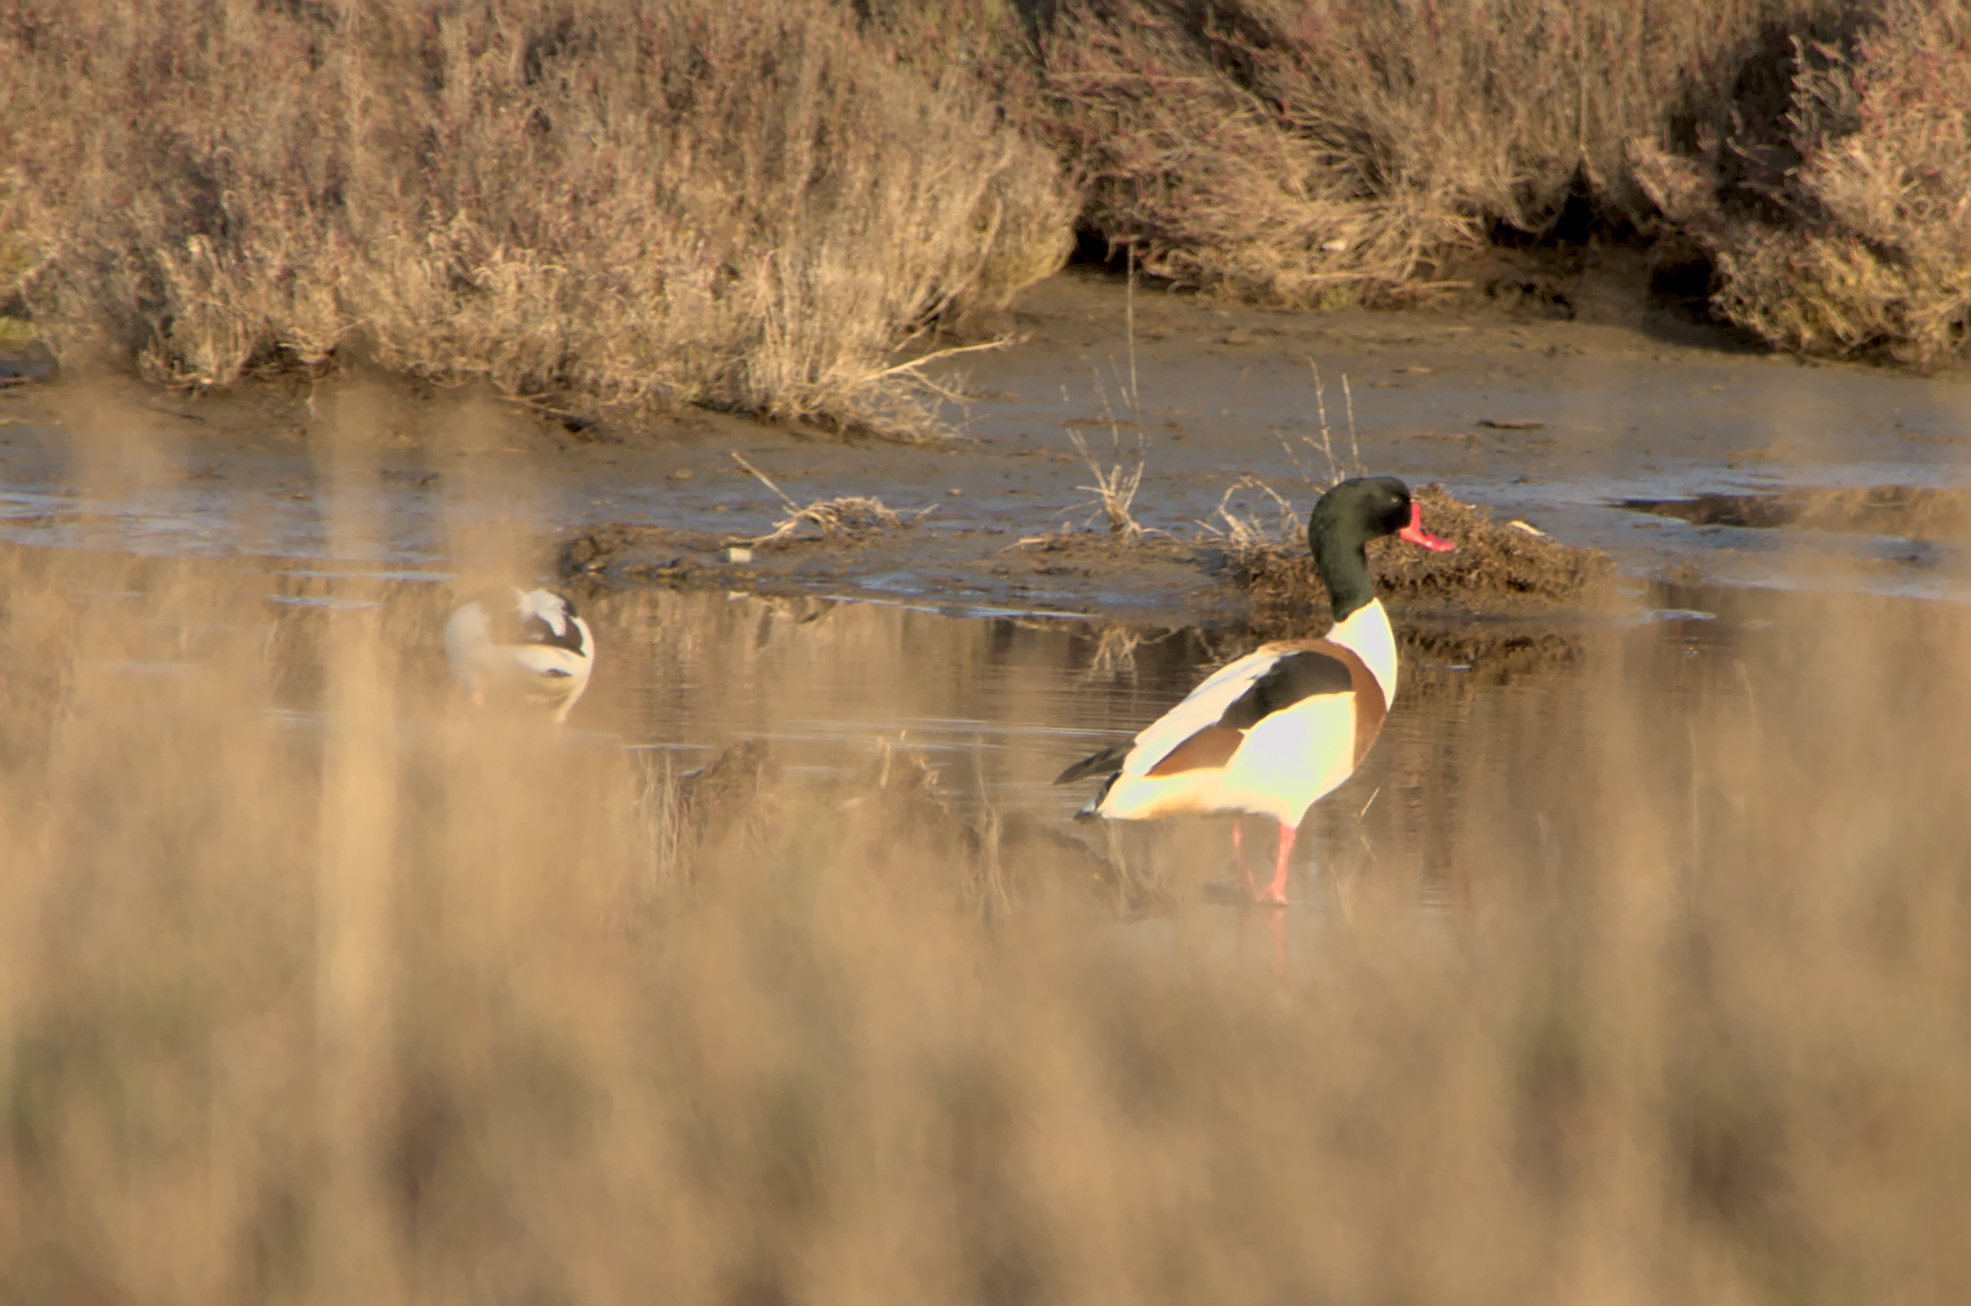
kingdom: Animalia
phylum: Chordata
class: Aves
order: Anseriformes
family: Anatidae
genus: Tadorna
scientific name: Tadorna tadorna
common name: Common shelduck
